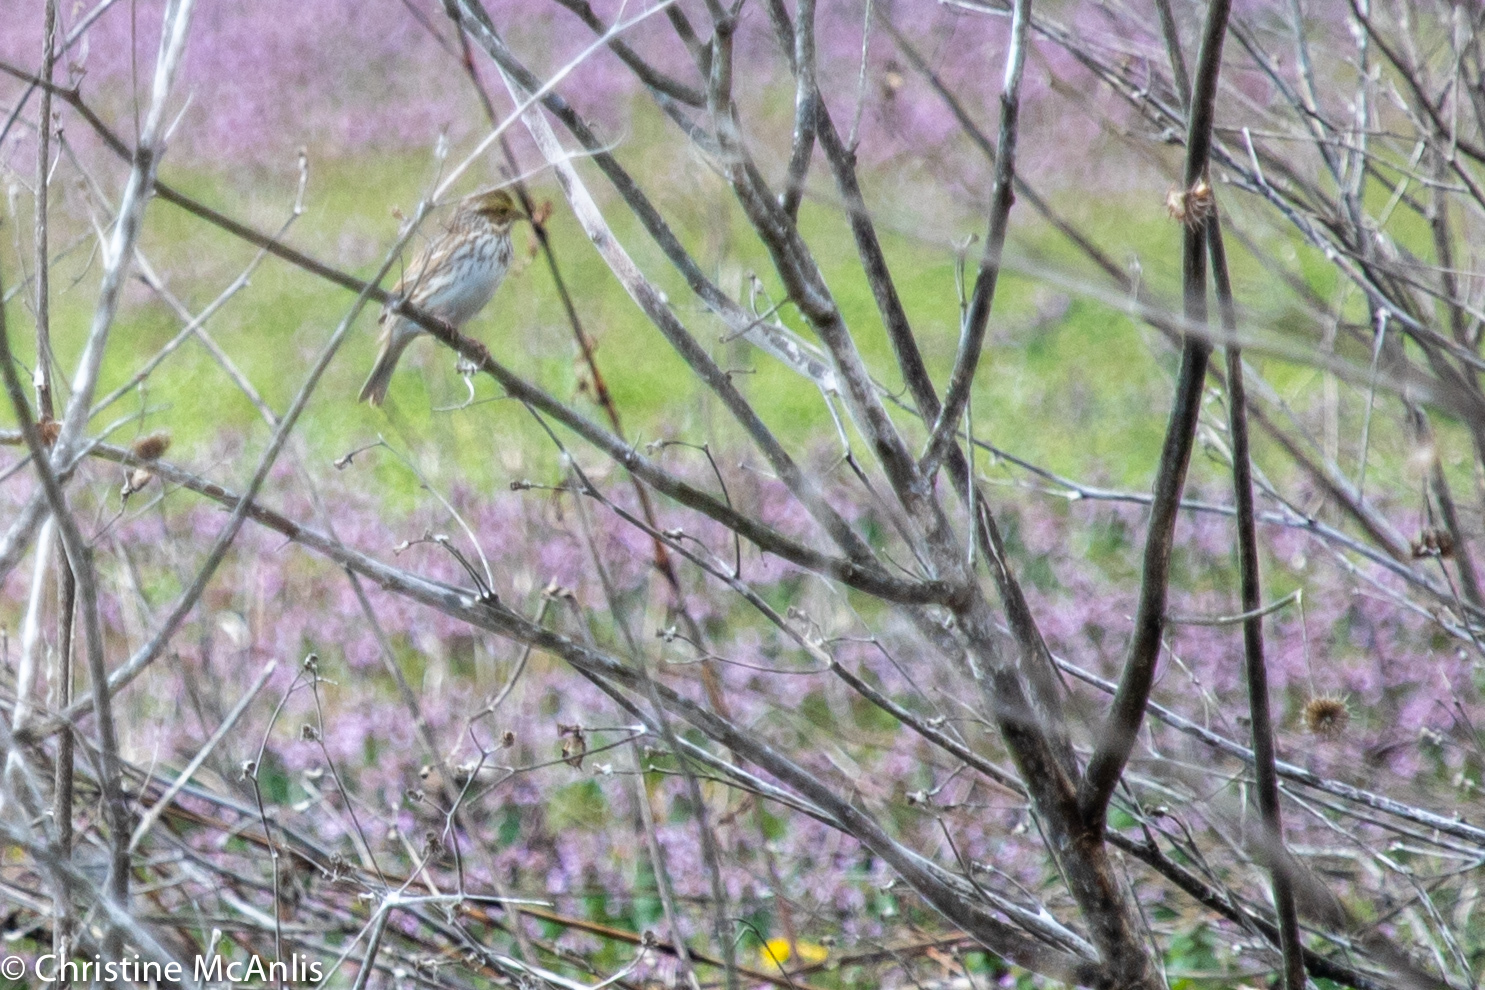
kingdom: Animalia
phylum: Chordata
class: Aves
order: Passeriformes
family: Passerellidae
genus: Passerculus
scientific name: Passerculus sandwichensis
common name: Savannah sparrow
